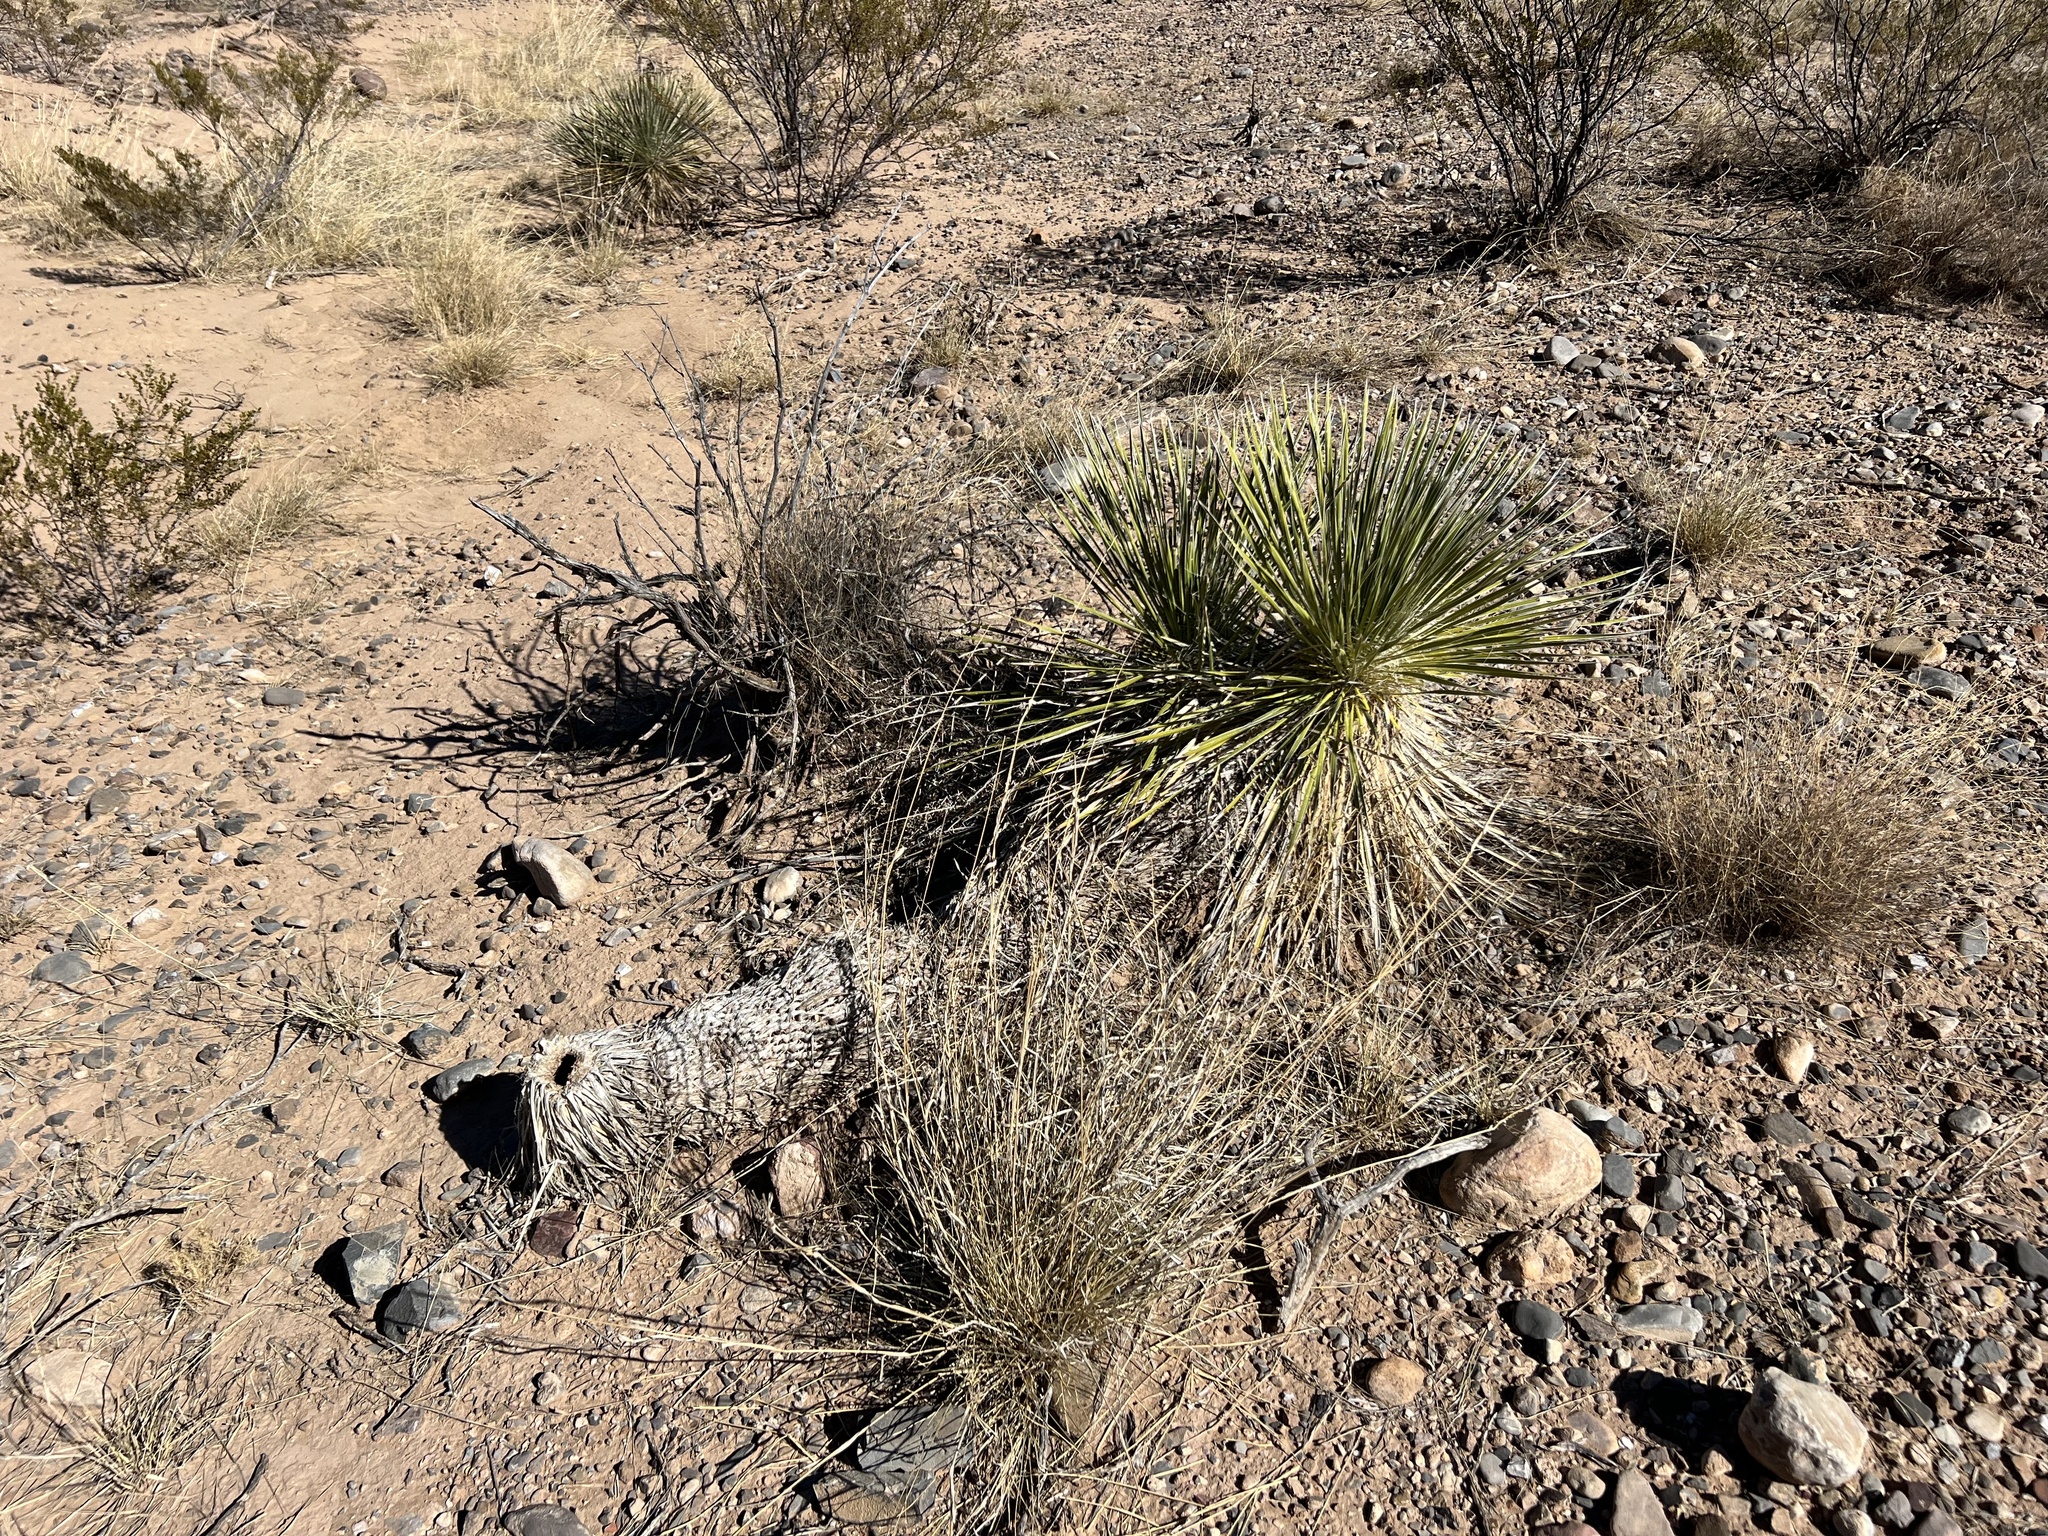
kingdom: Plantae
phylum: Tracheophyta
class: Liliopsida
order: Asparagales
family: Asparagaceae
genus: Yucca
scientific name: Yucca elata
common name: Palmella
